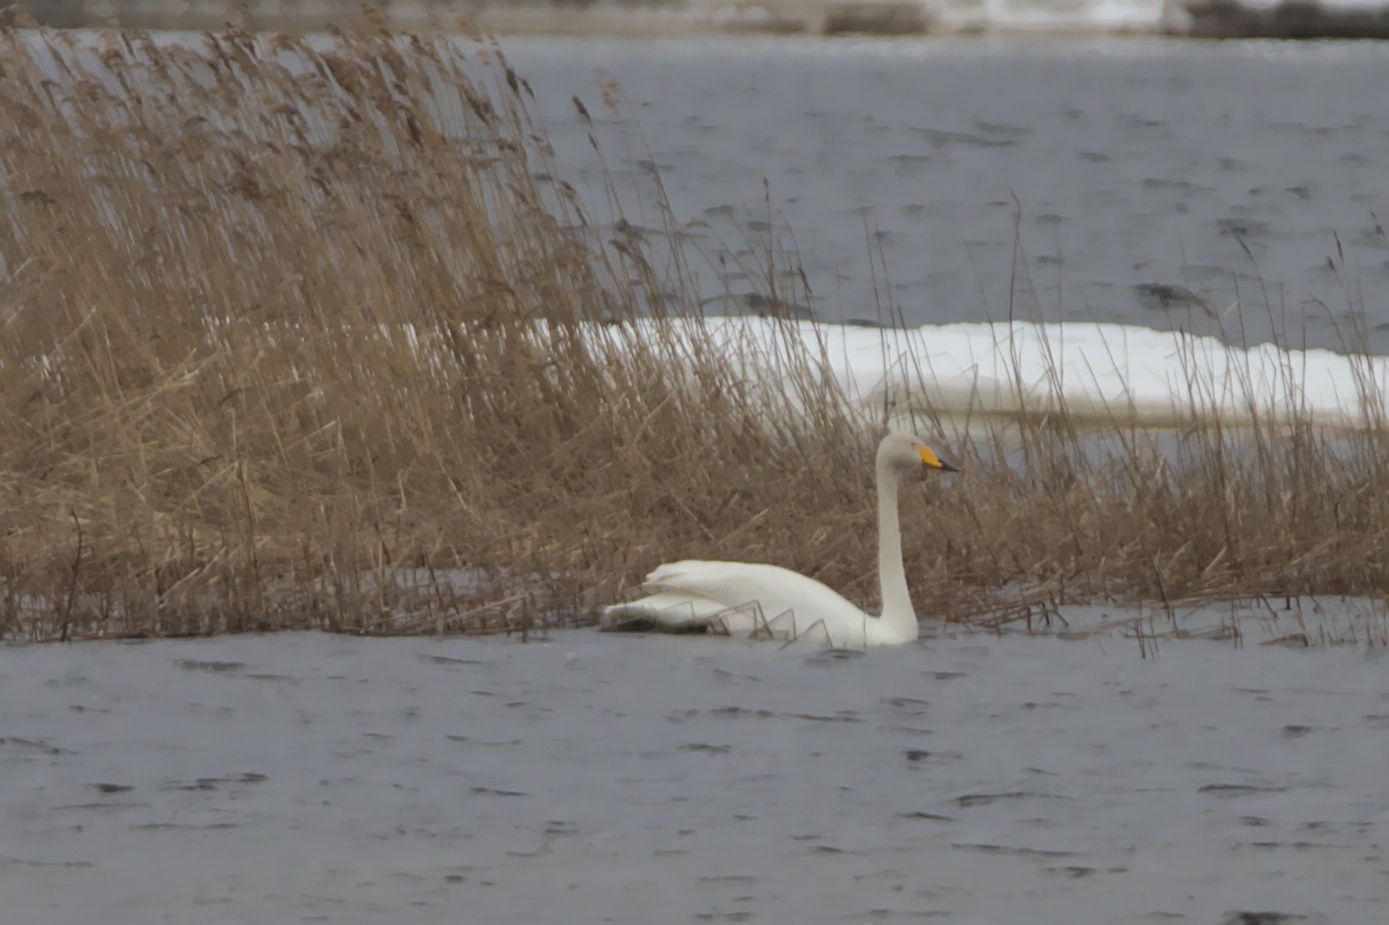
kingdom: Animalia
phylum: Chordata
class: Aves
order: Anseriformes
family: Anatidae
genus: Cygnus
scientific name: Cygnus cygnus
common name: Whooper swan
